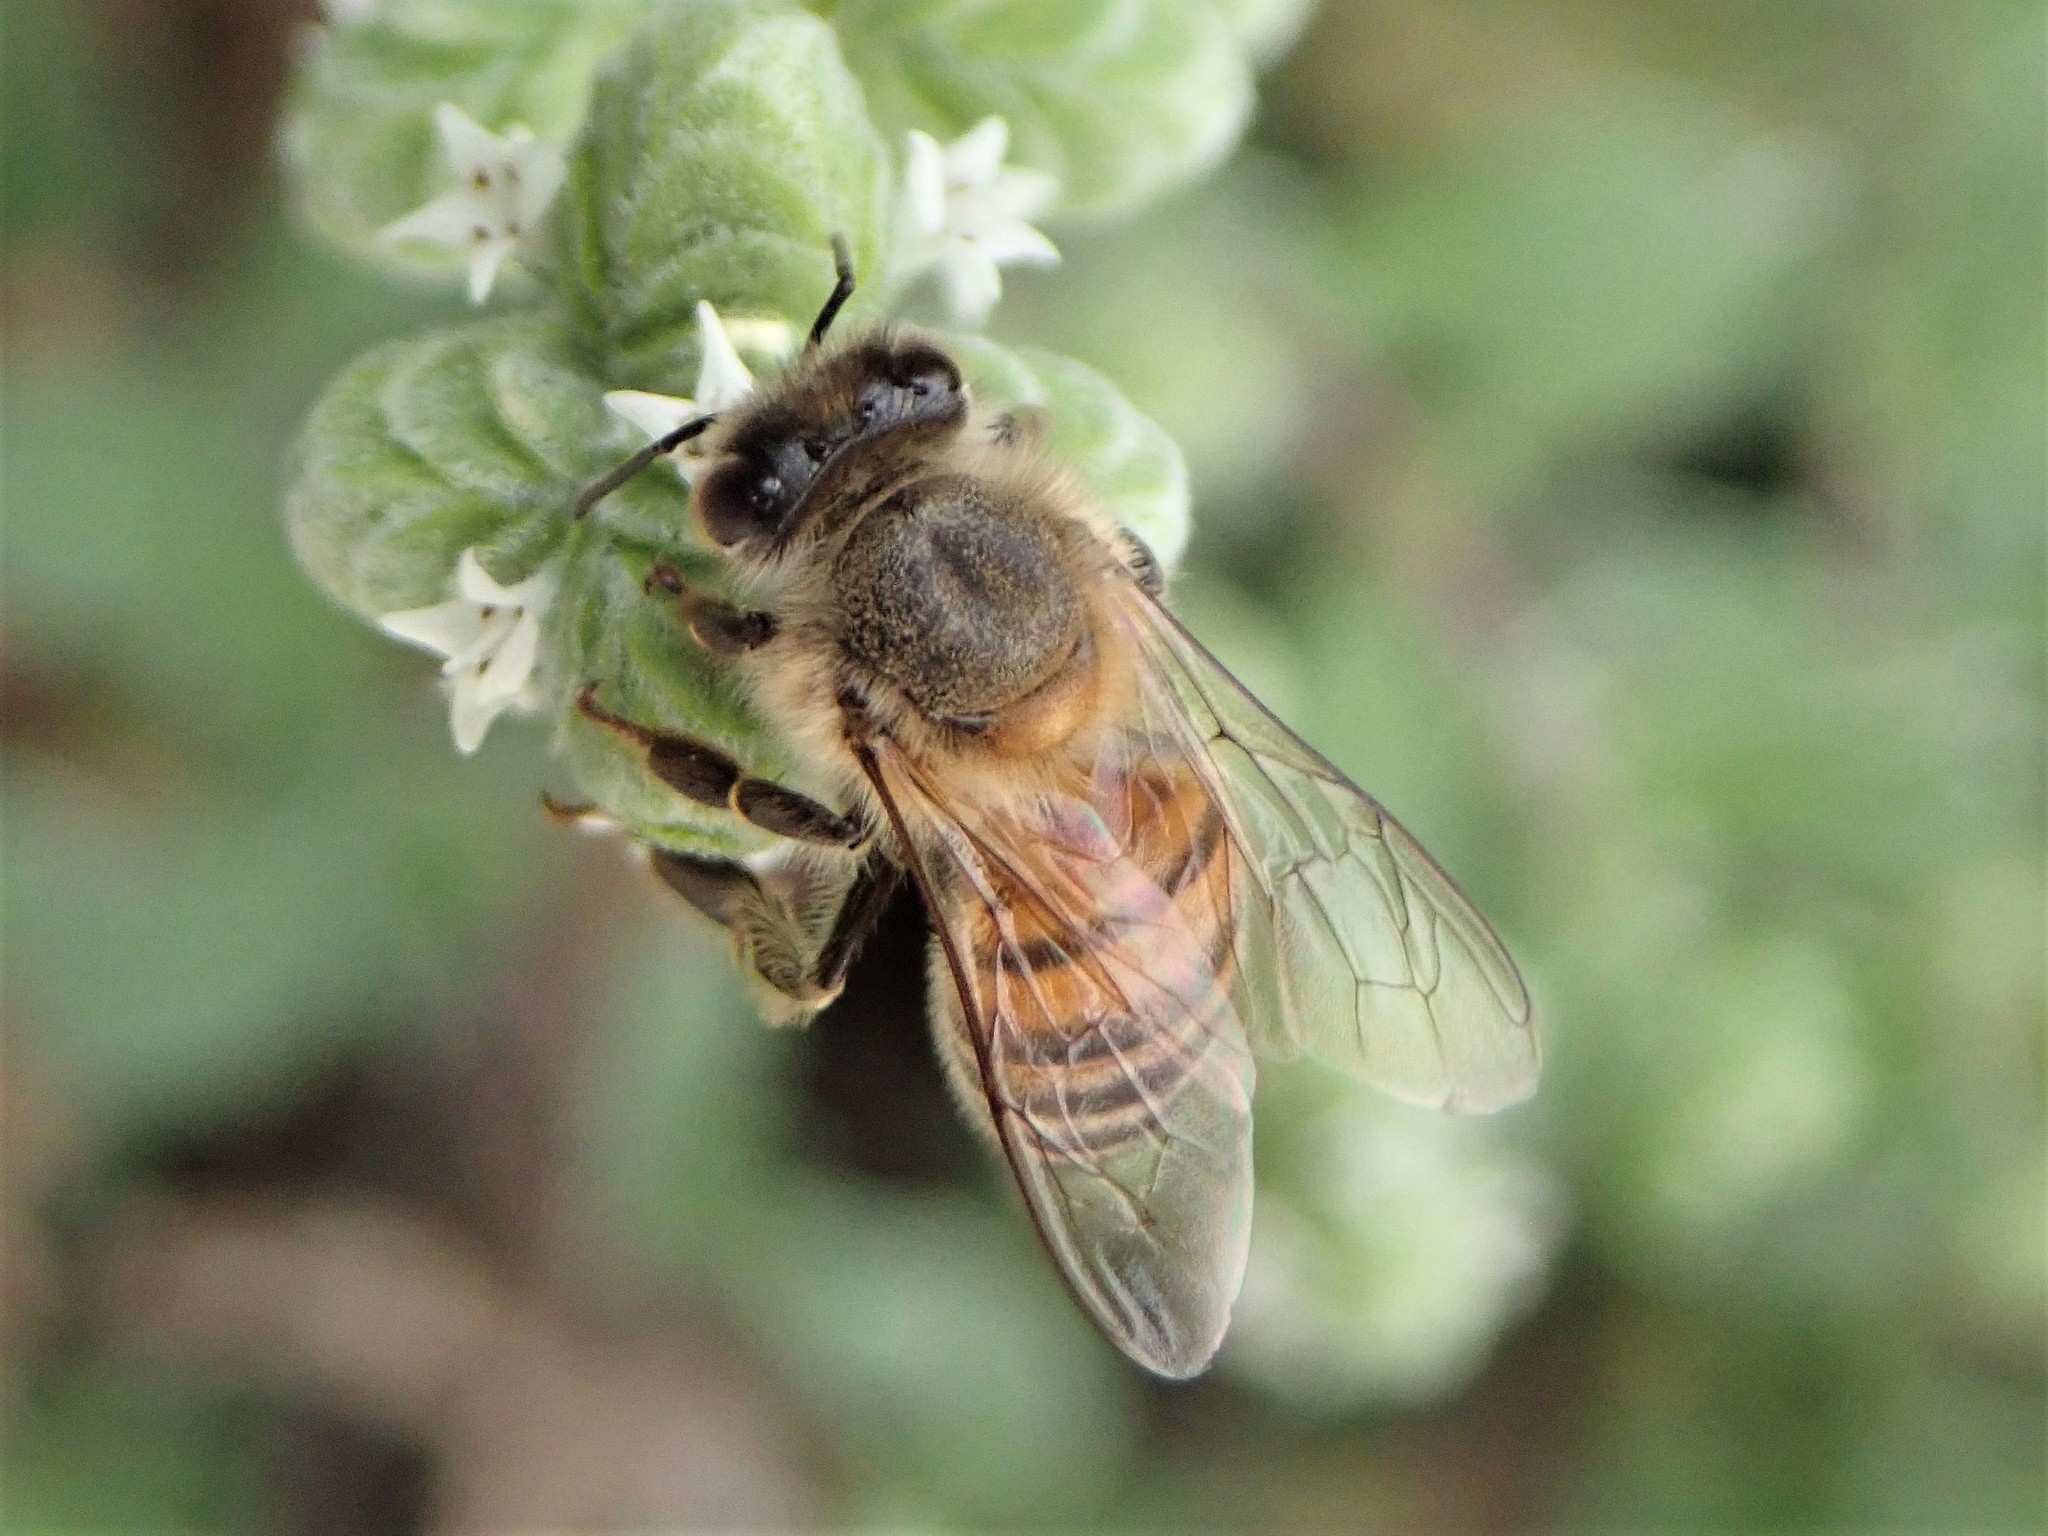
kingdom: Animalia
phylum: Arthropoda
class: Insecta
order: Hymenoptera
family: Apidae
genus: Apis
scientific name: Apis mellifera
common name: Honey bee
